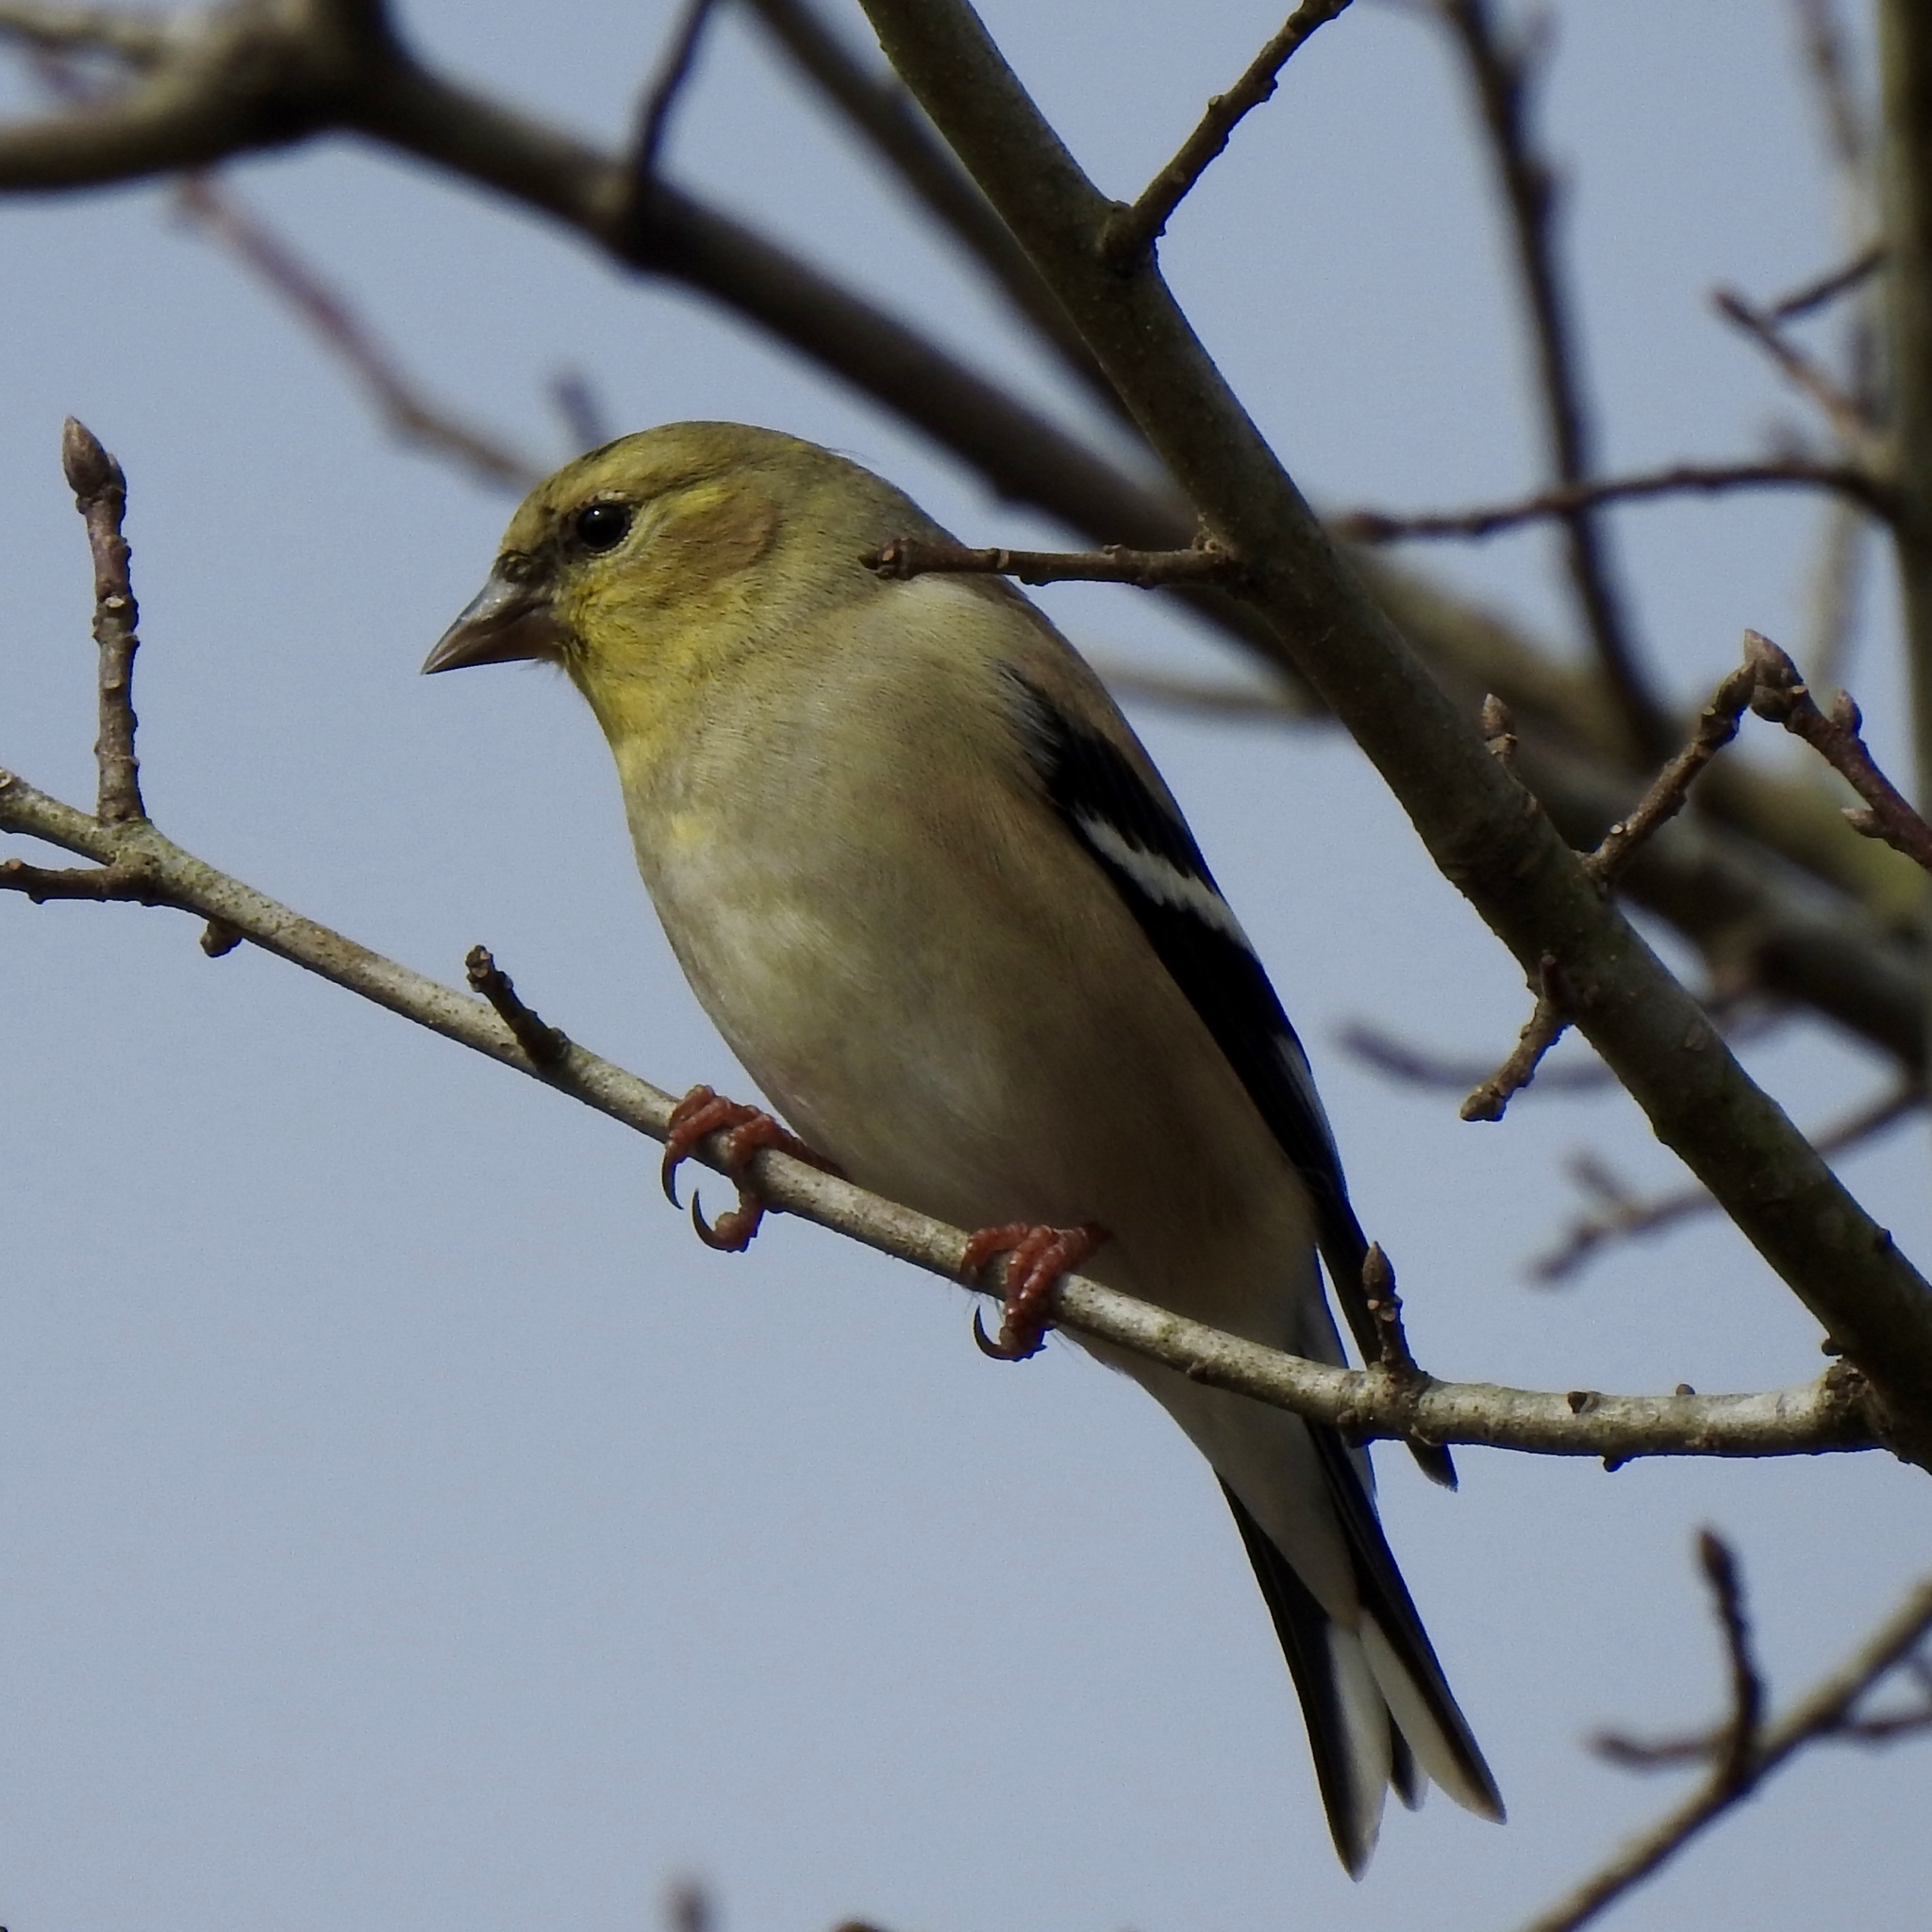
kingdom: Animalia
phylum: Chordata
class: Aves
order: Passeriformes
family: Fringillidae
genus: Spinus
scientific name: Spinus tristis
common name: American goldfinch
